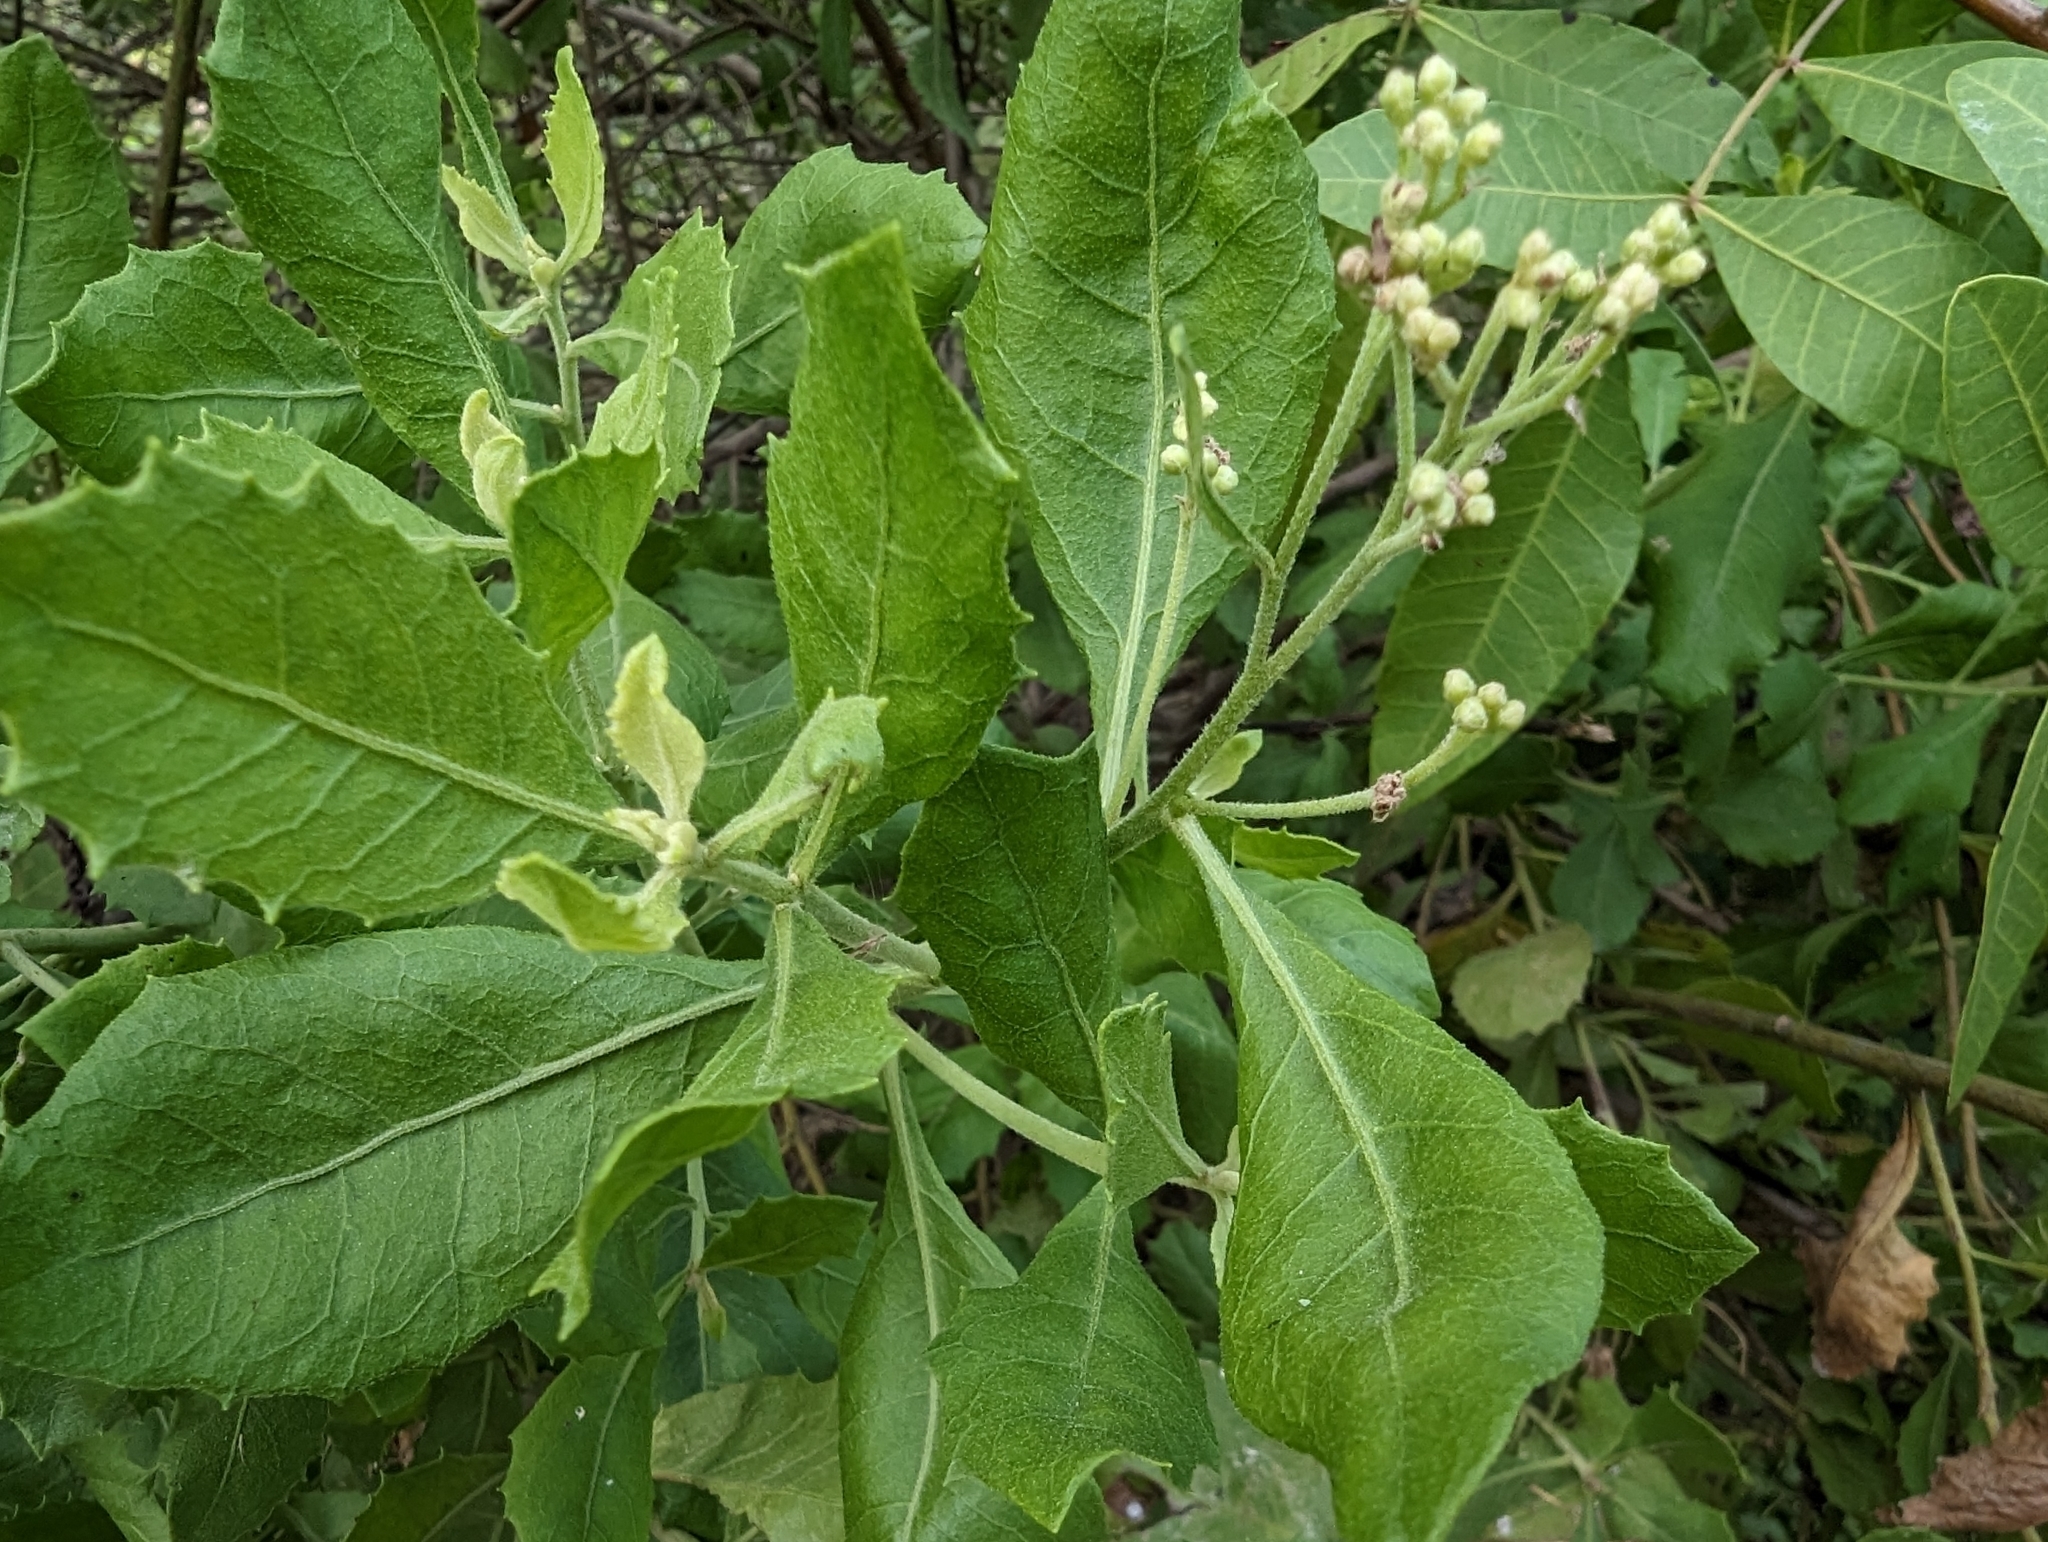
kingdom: Plantae
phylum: Tracheophyta
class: Magnoliopsida
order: Asterales
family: Asteraceae
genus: Pluchea
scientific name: Pluchea indica
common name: Indian fleabane
